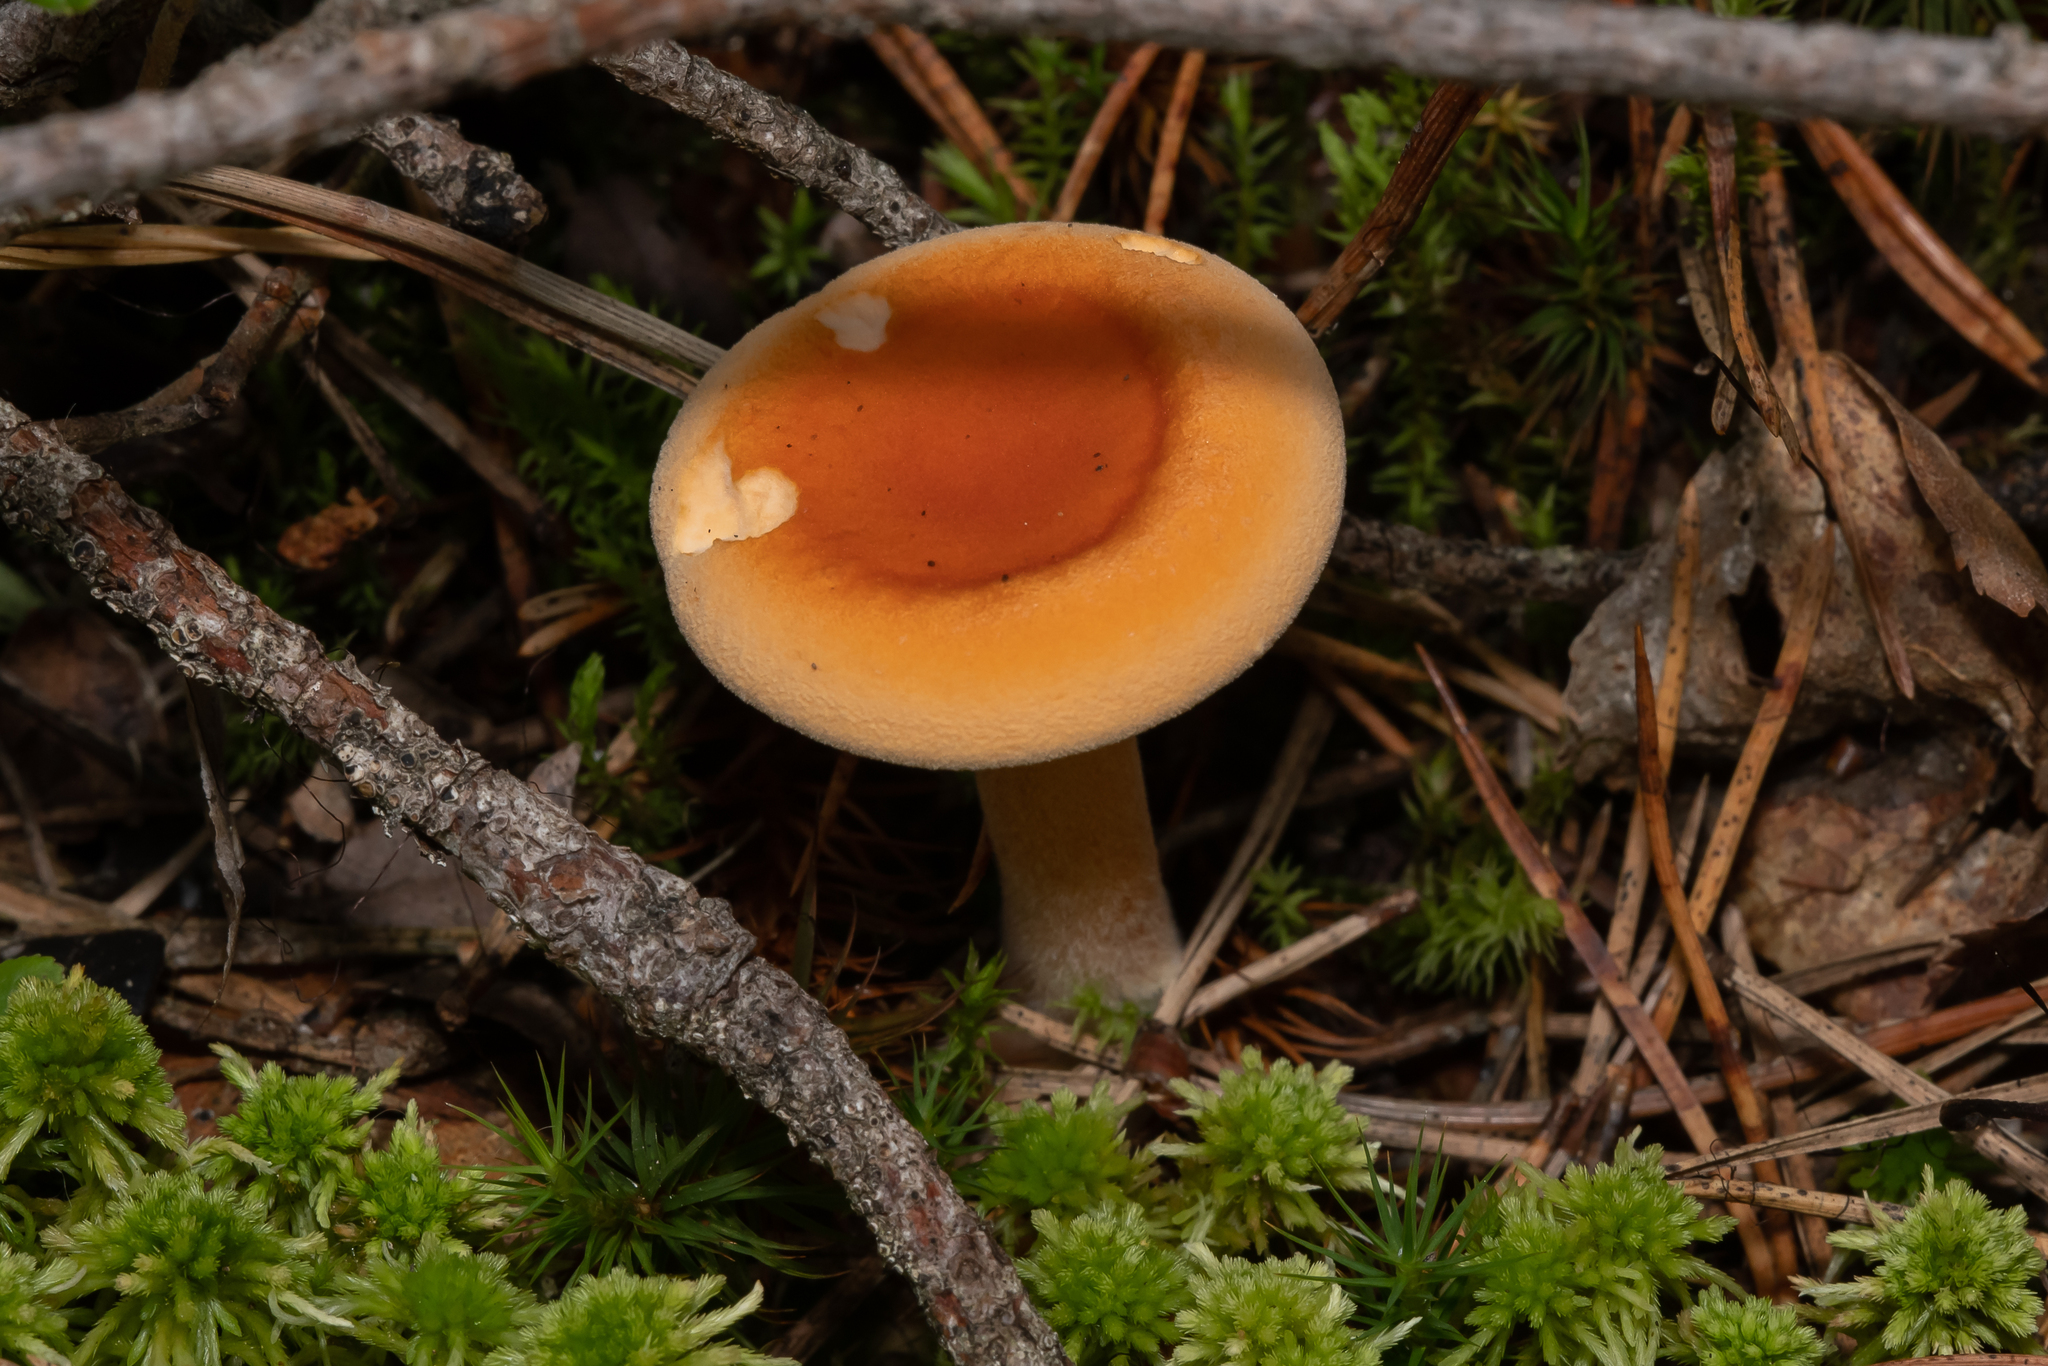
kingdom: Fungi
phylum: Basidiomycota
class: Agaricomycetes
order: Boletales
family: Hygrophoropsidaceae
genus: Hygrophoropsis
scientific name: Hygrophoropsis aurantiaca
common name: False chanterelle
